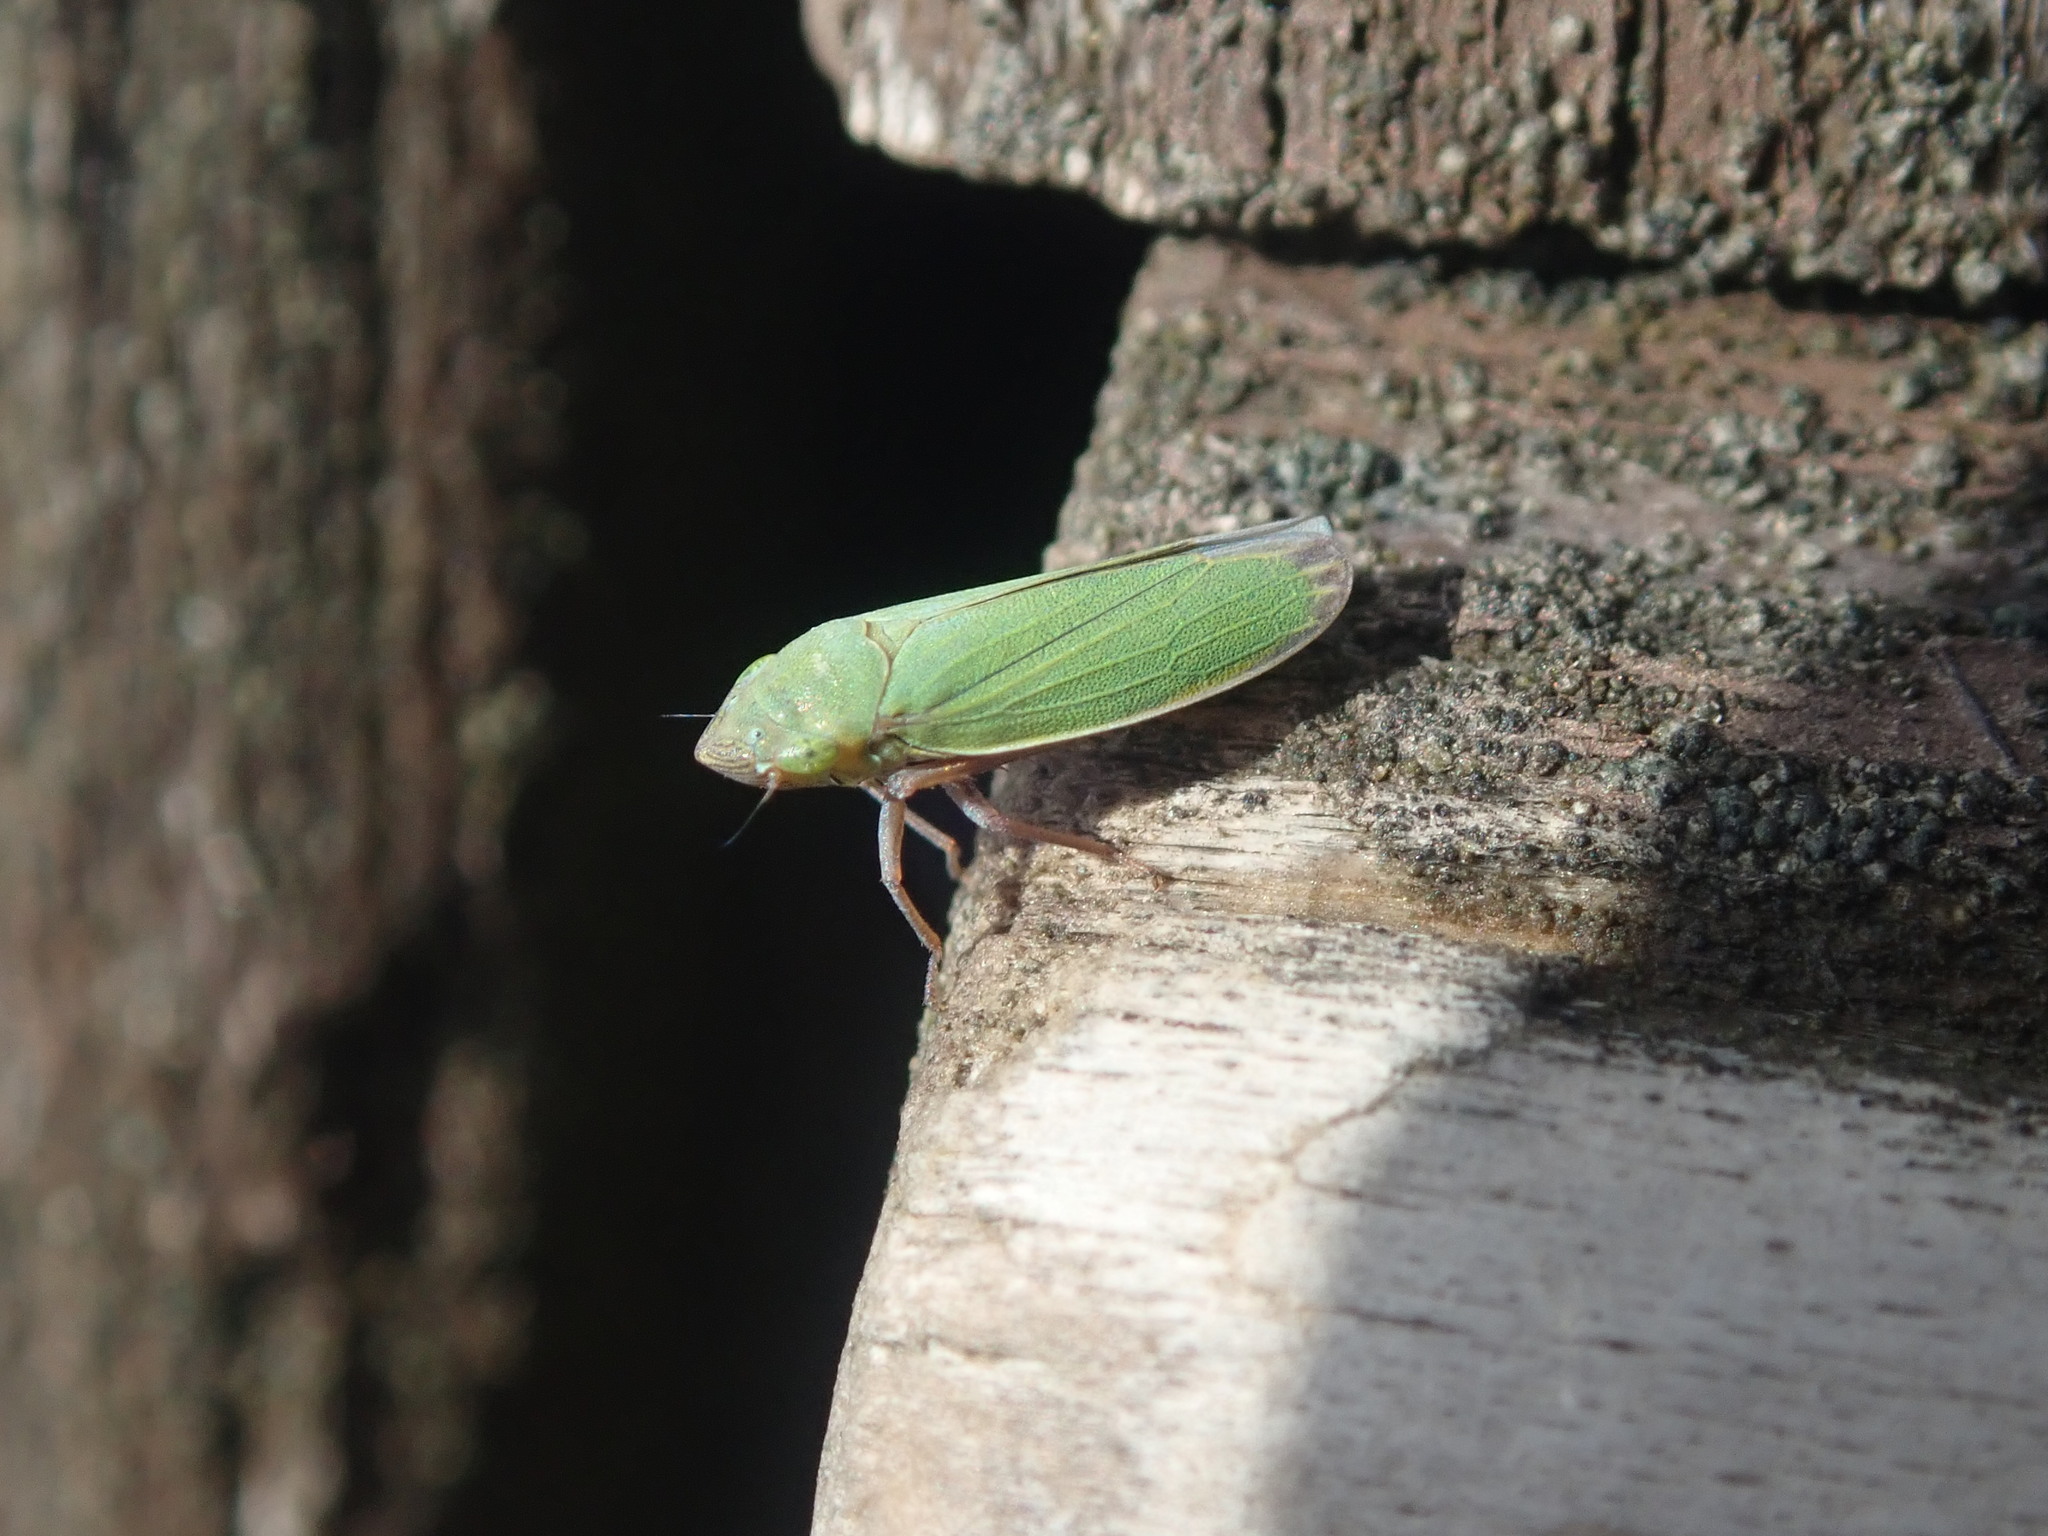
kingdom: Animalia
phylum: Arthropoda
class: Insecta
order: Hemiptera
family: Cicadellidae
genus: Helochara
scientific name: Helochara communis
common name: Bog leafhopper
